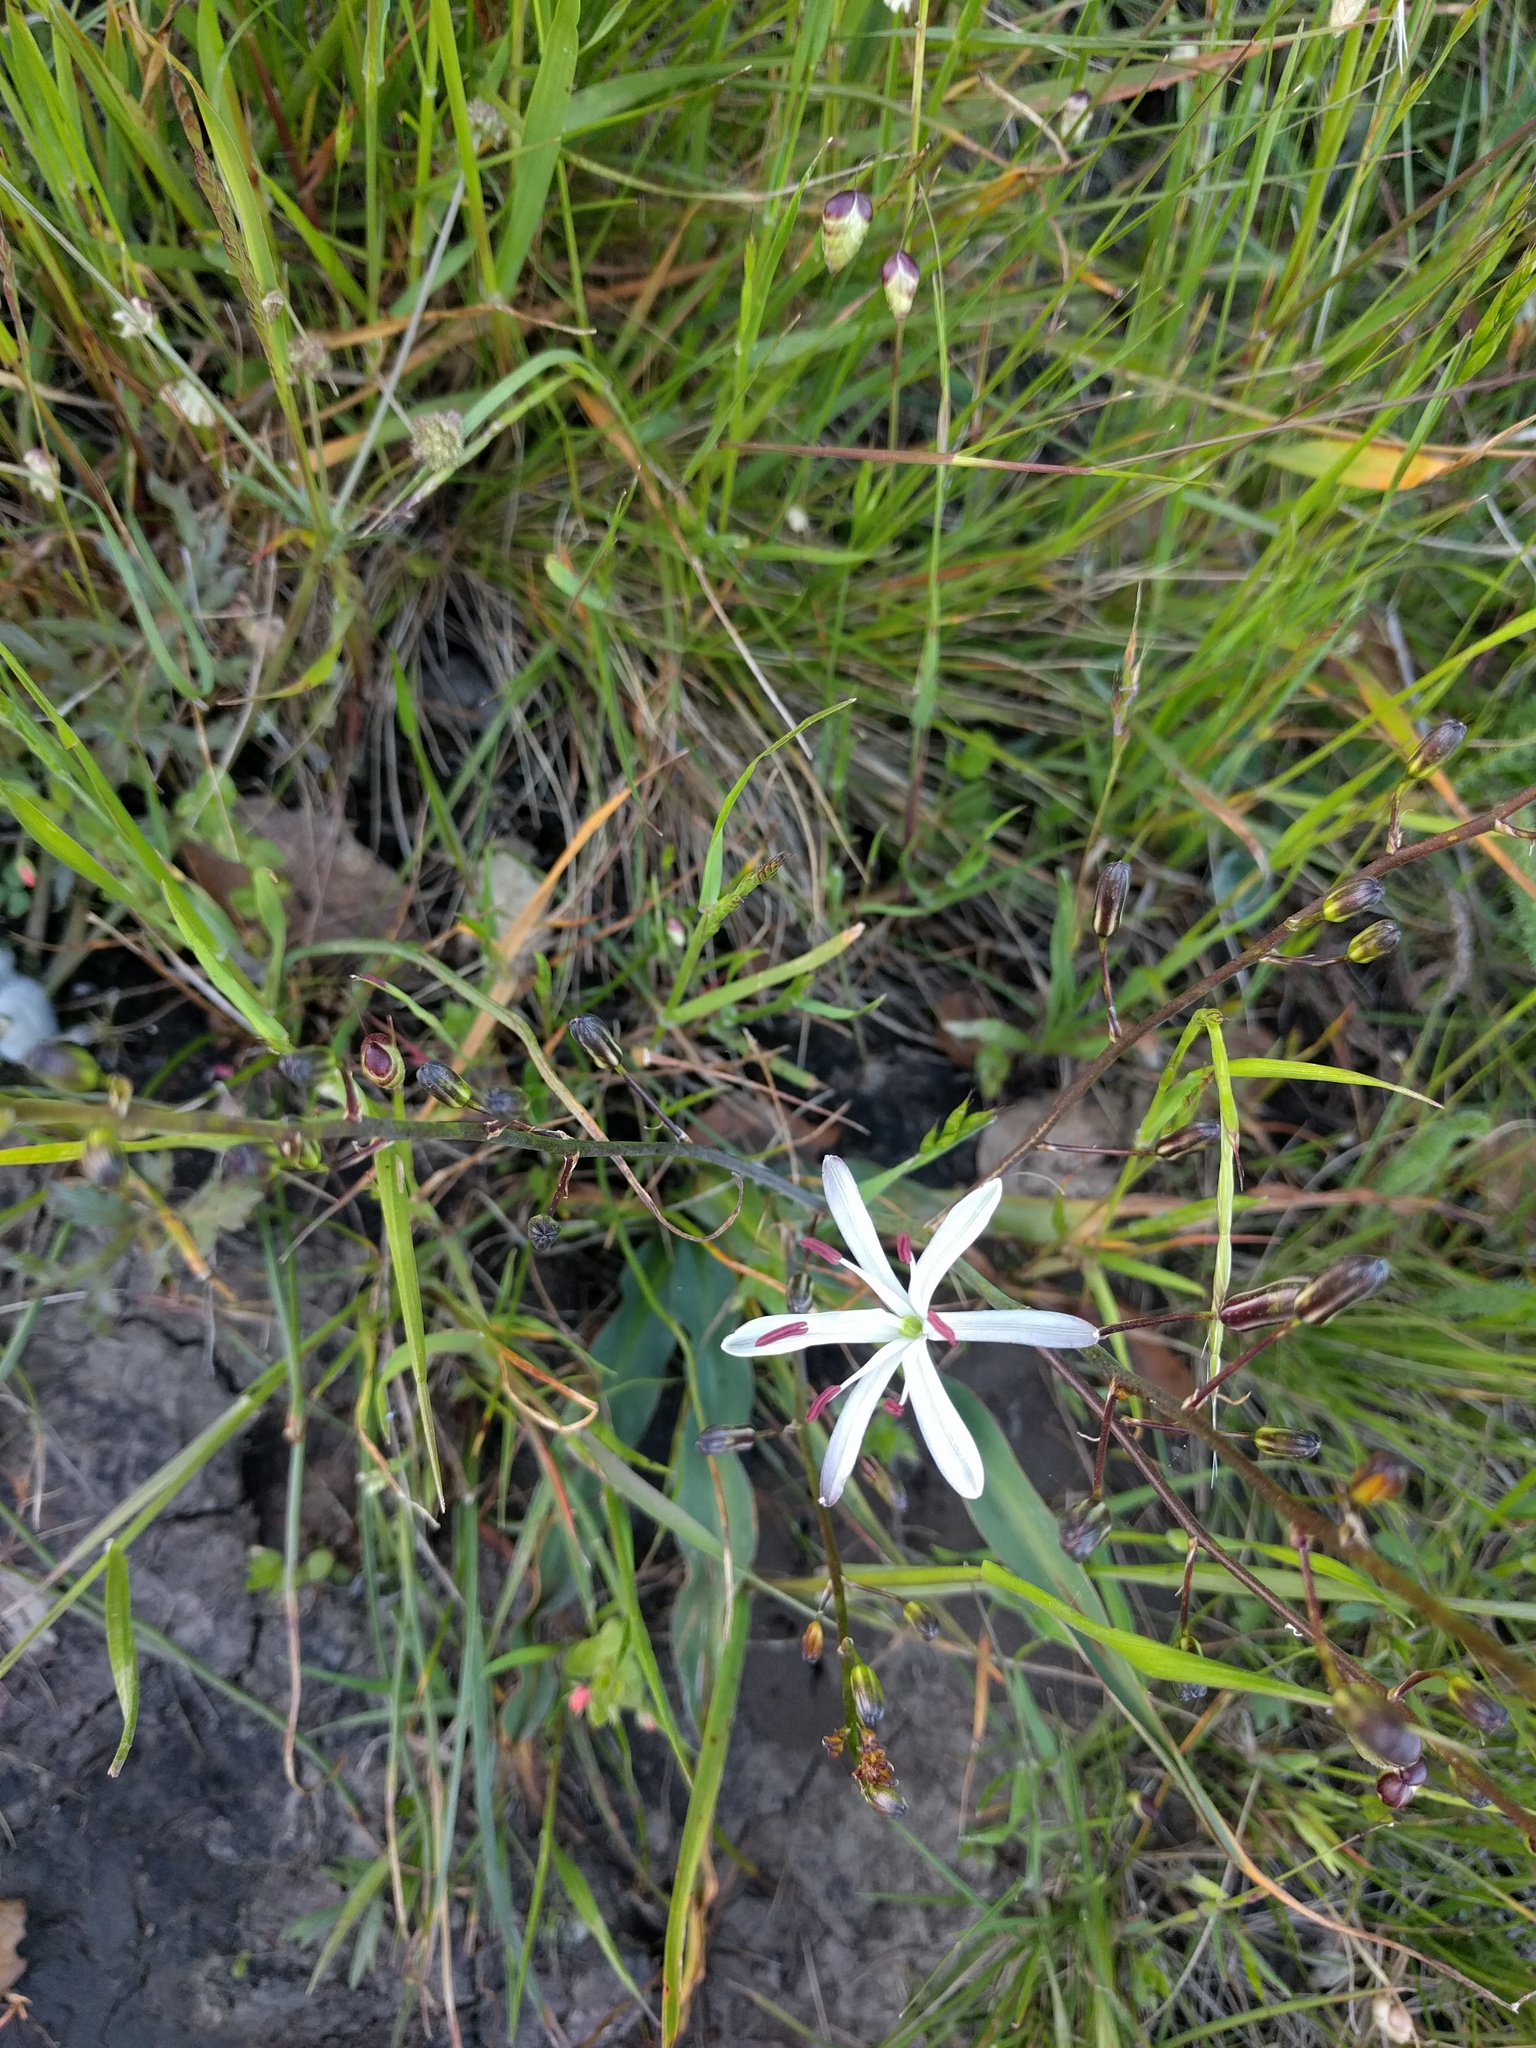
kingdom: Plantae
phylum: Tracheophyta
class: Liliopsida
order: Asparagales
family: Asparagaceae
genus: Chlorogalum
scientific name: Chlorogalum pomeridianum
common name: Amole
